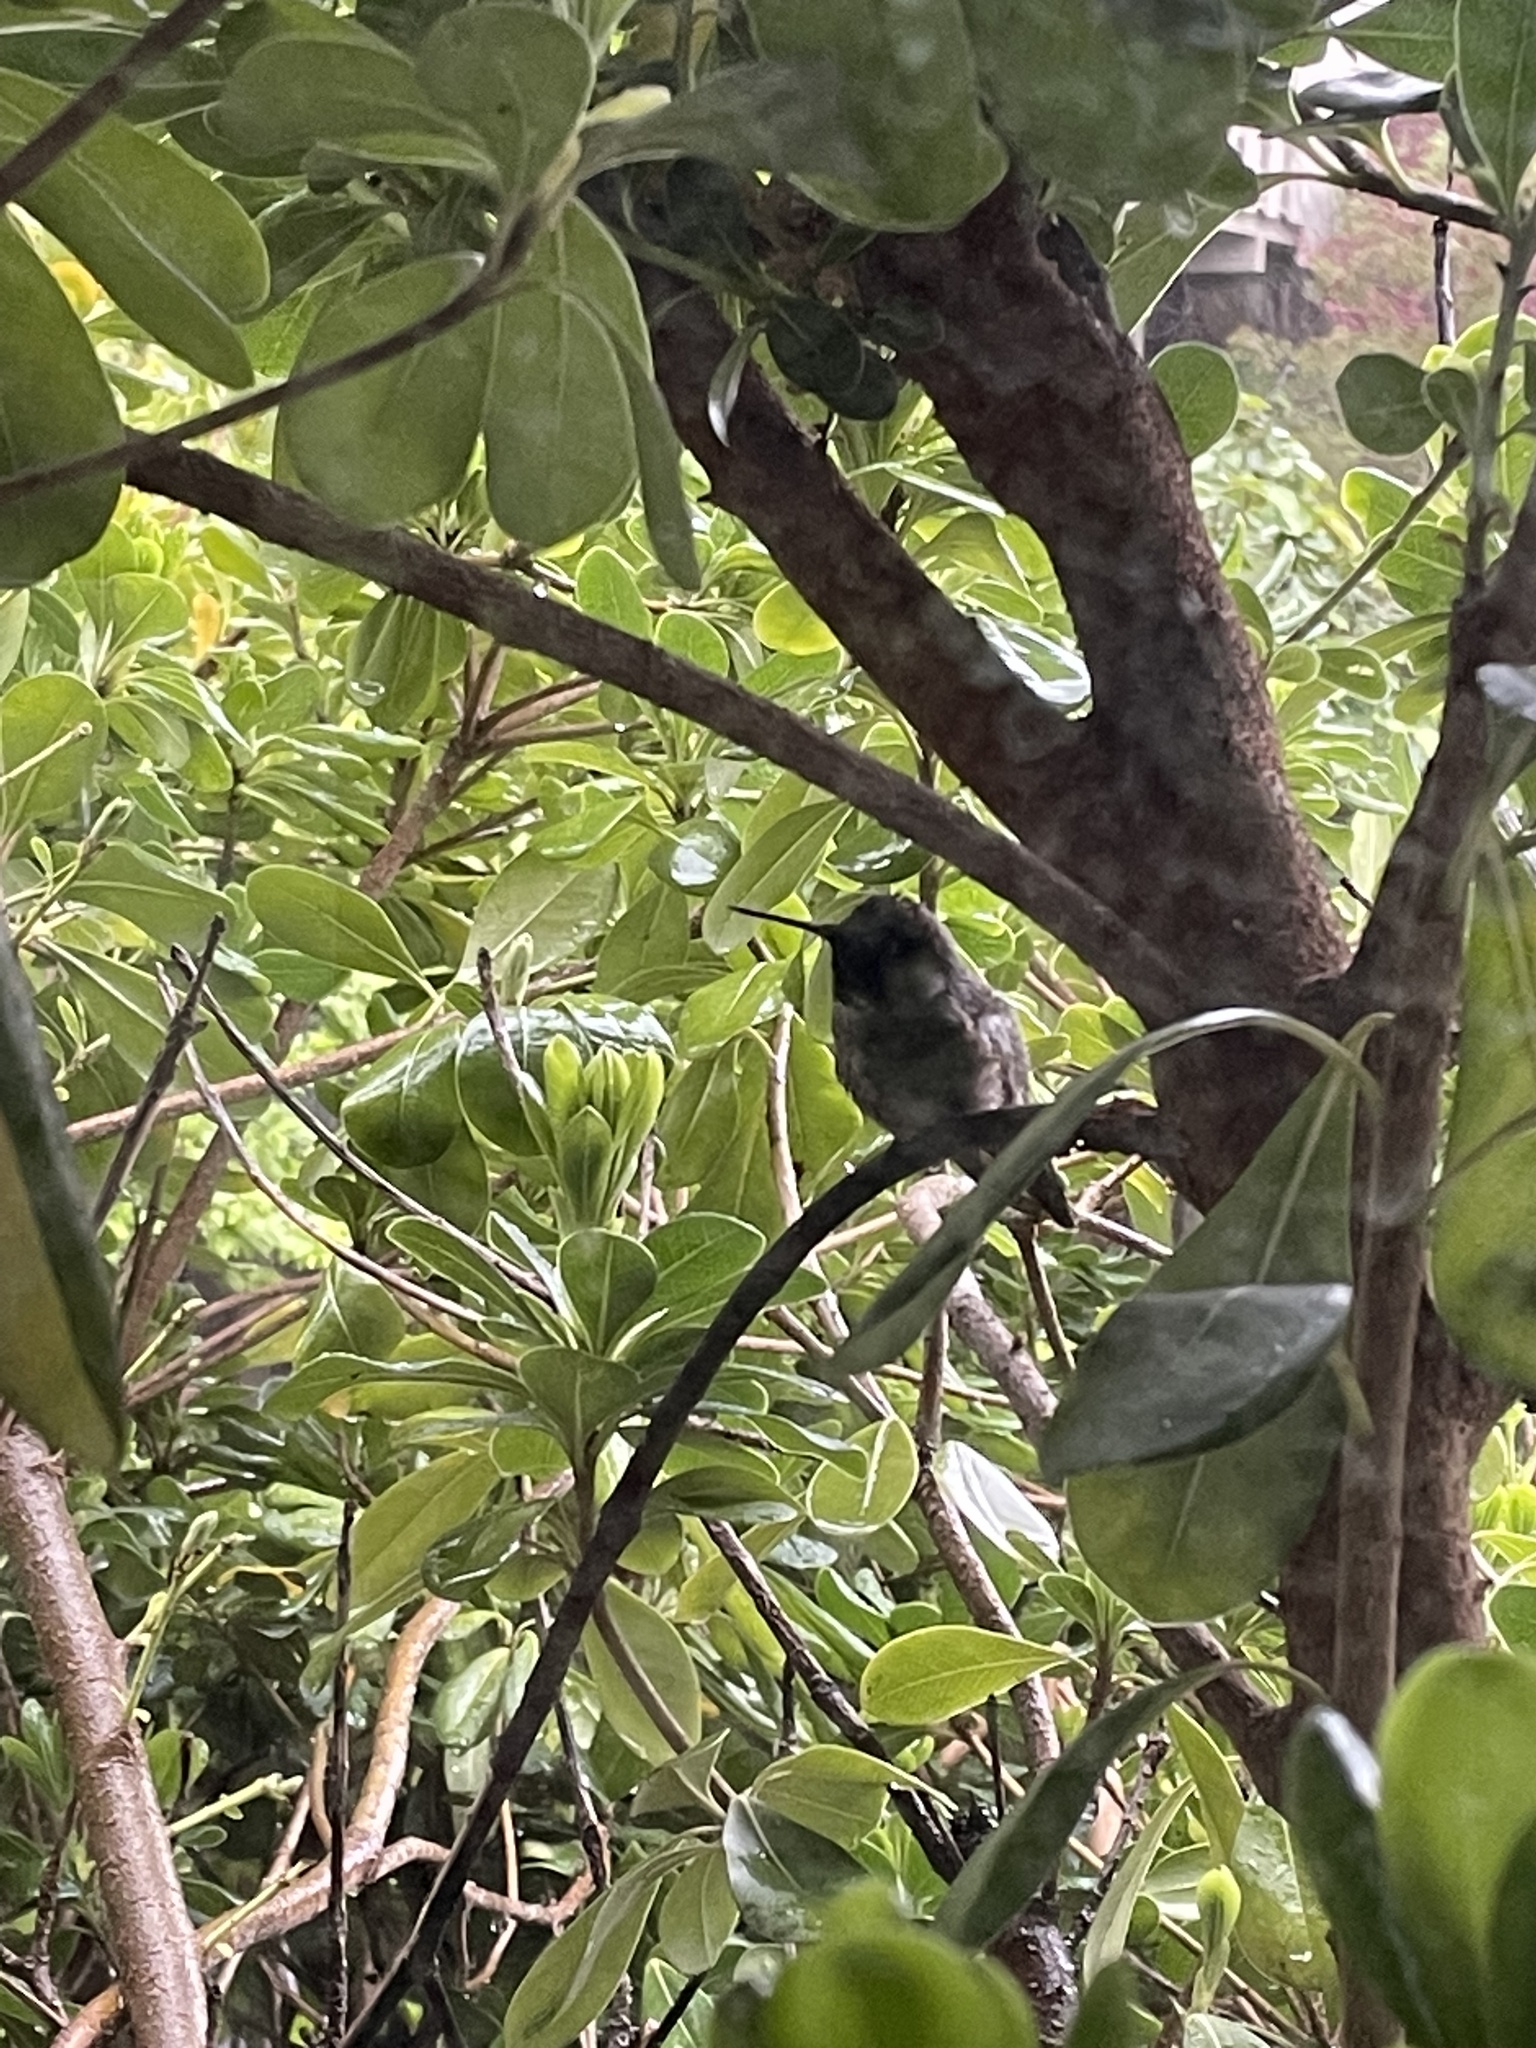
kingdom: Animalia
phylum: Chordata
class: Aves
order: Apodiformes
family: Trochilidae
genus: Calypte
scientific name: Calypte anna
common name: Anna's hummingbird
